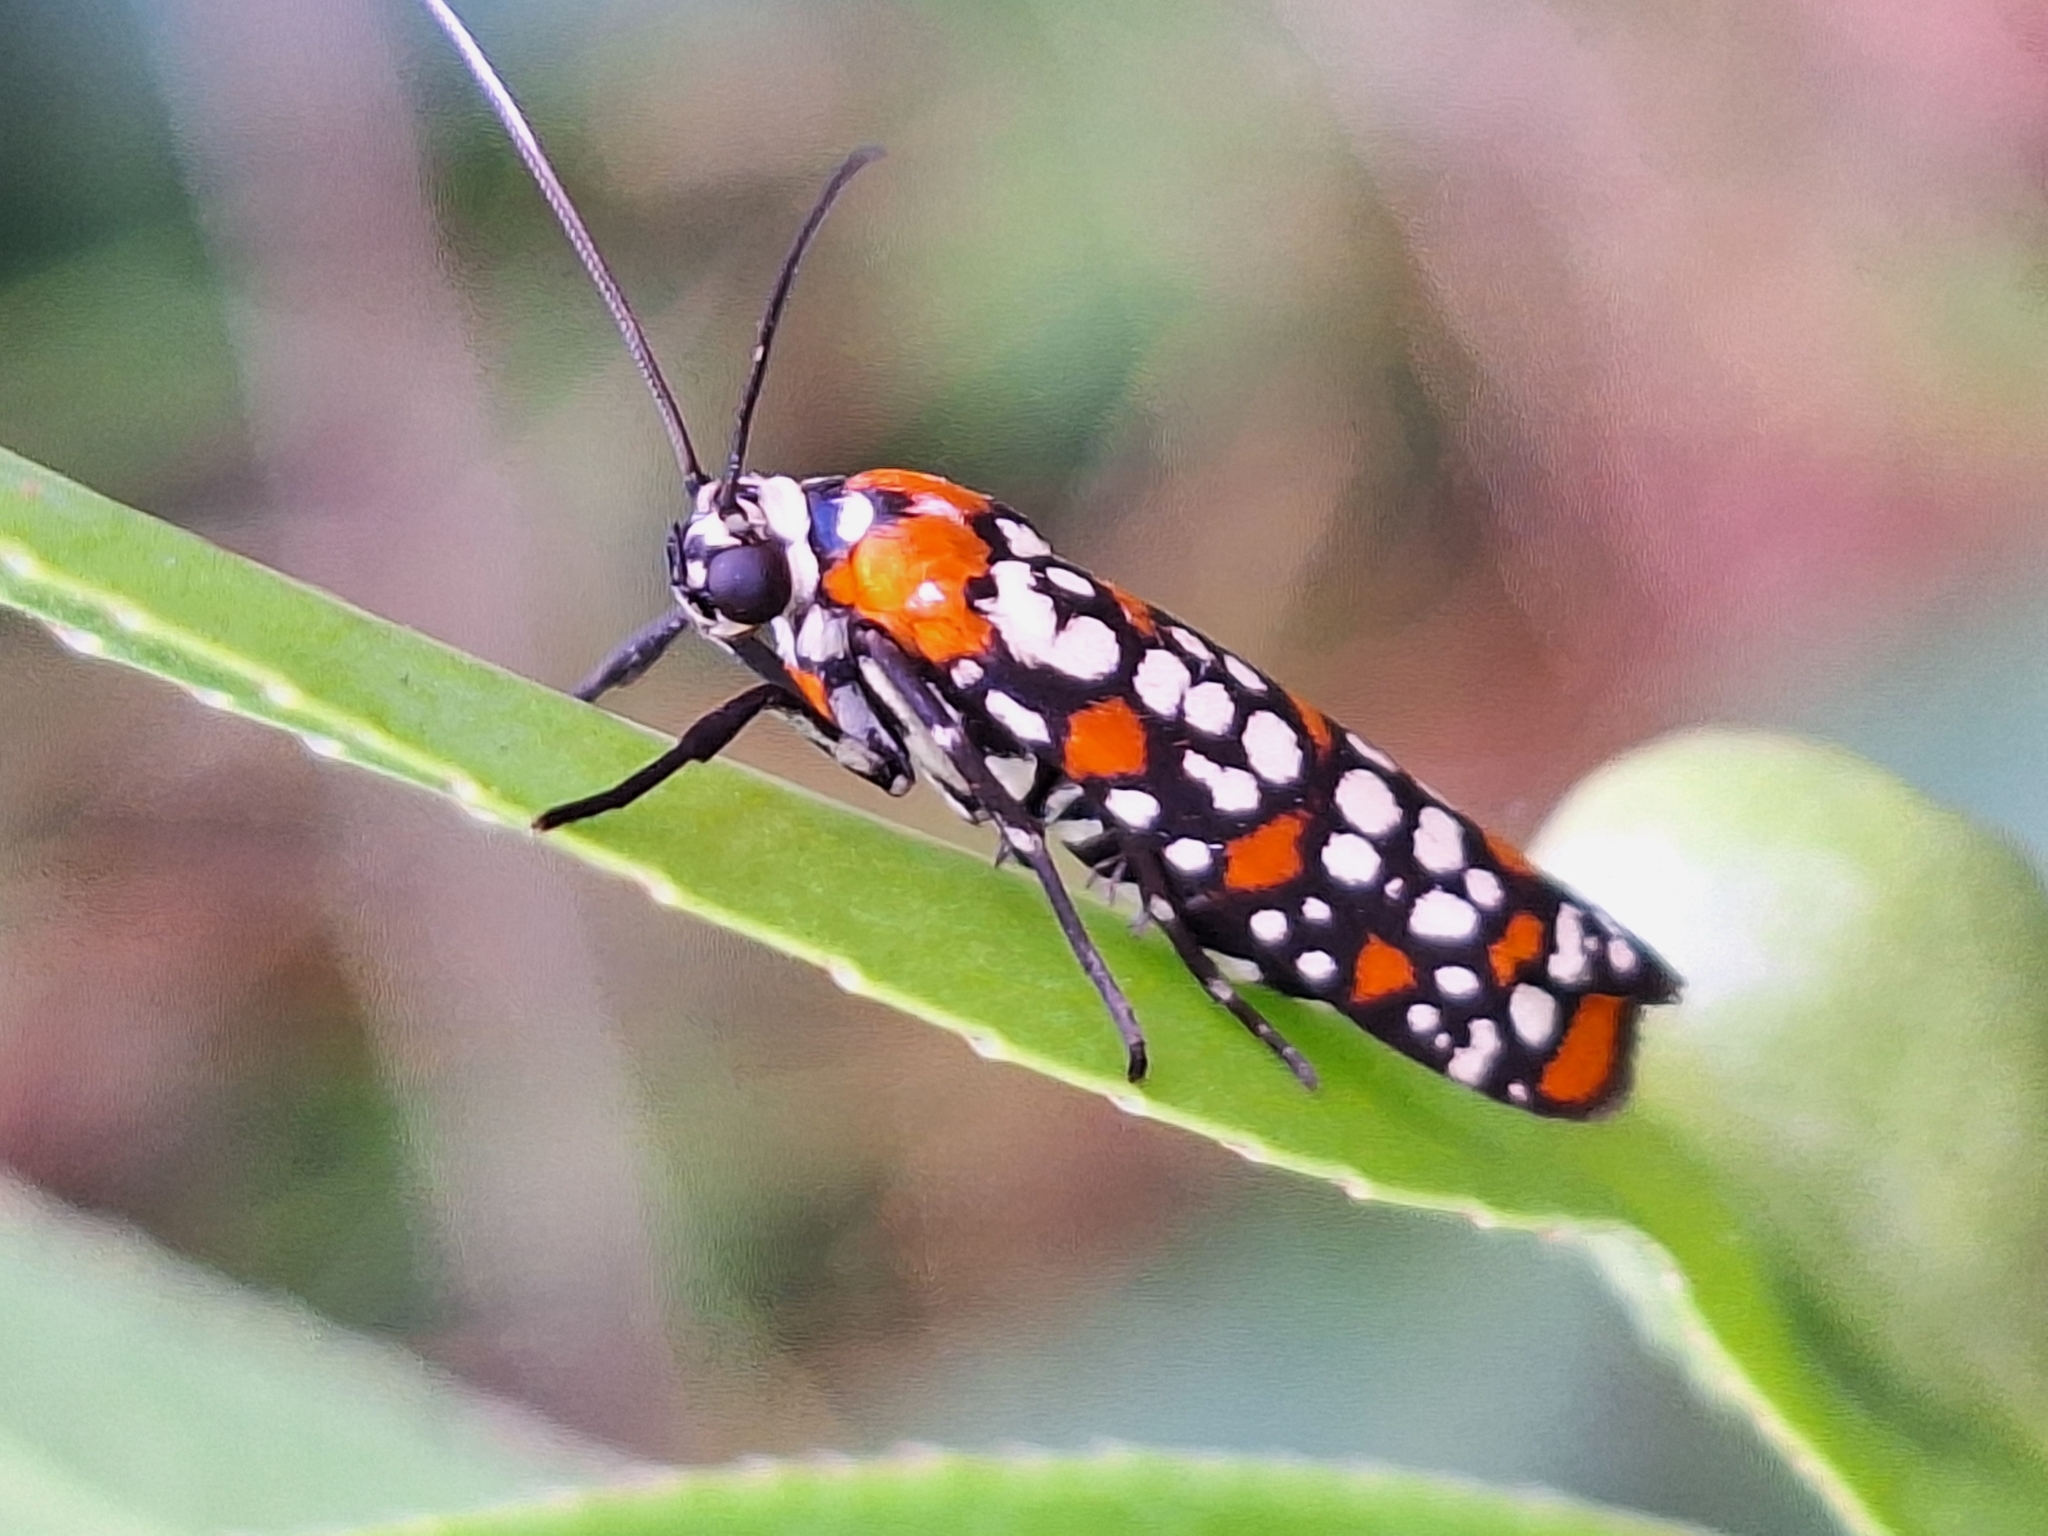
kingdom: Animalia
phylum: Arthropoda
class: Insecta
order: Lepidoptera
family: Attevidae
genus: Atteva
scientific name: Atteva punctella
